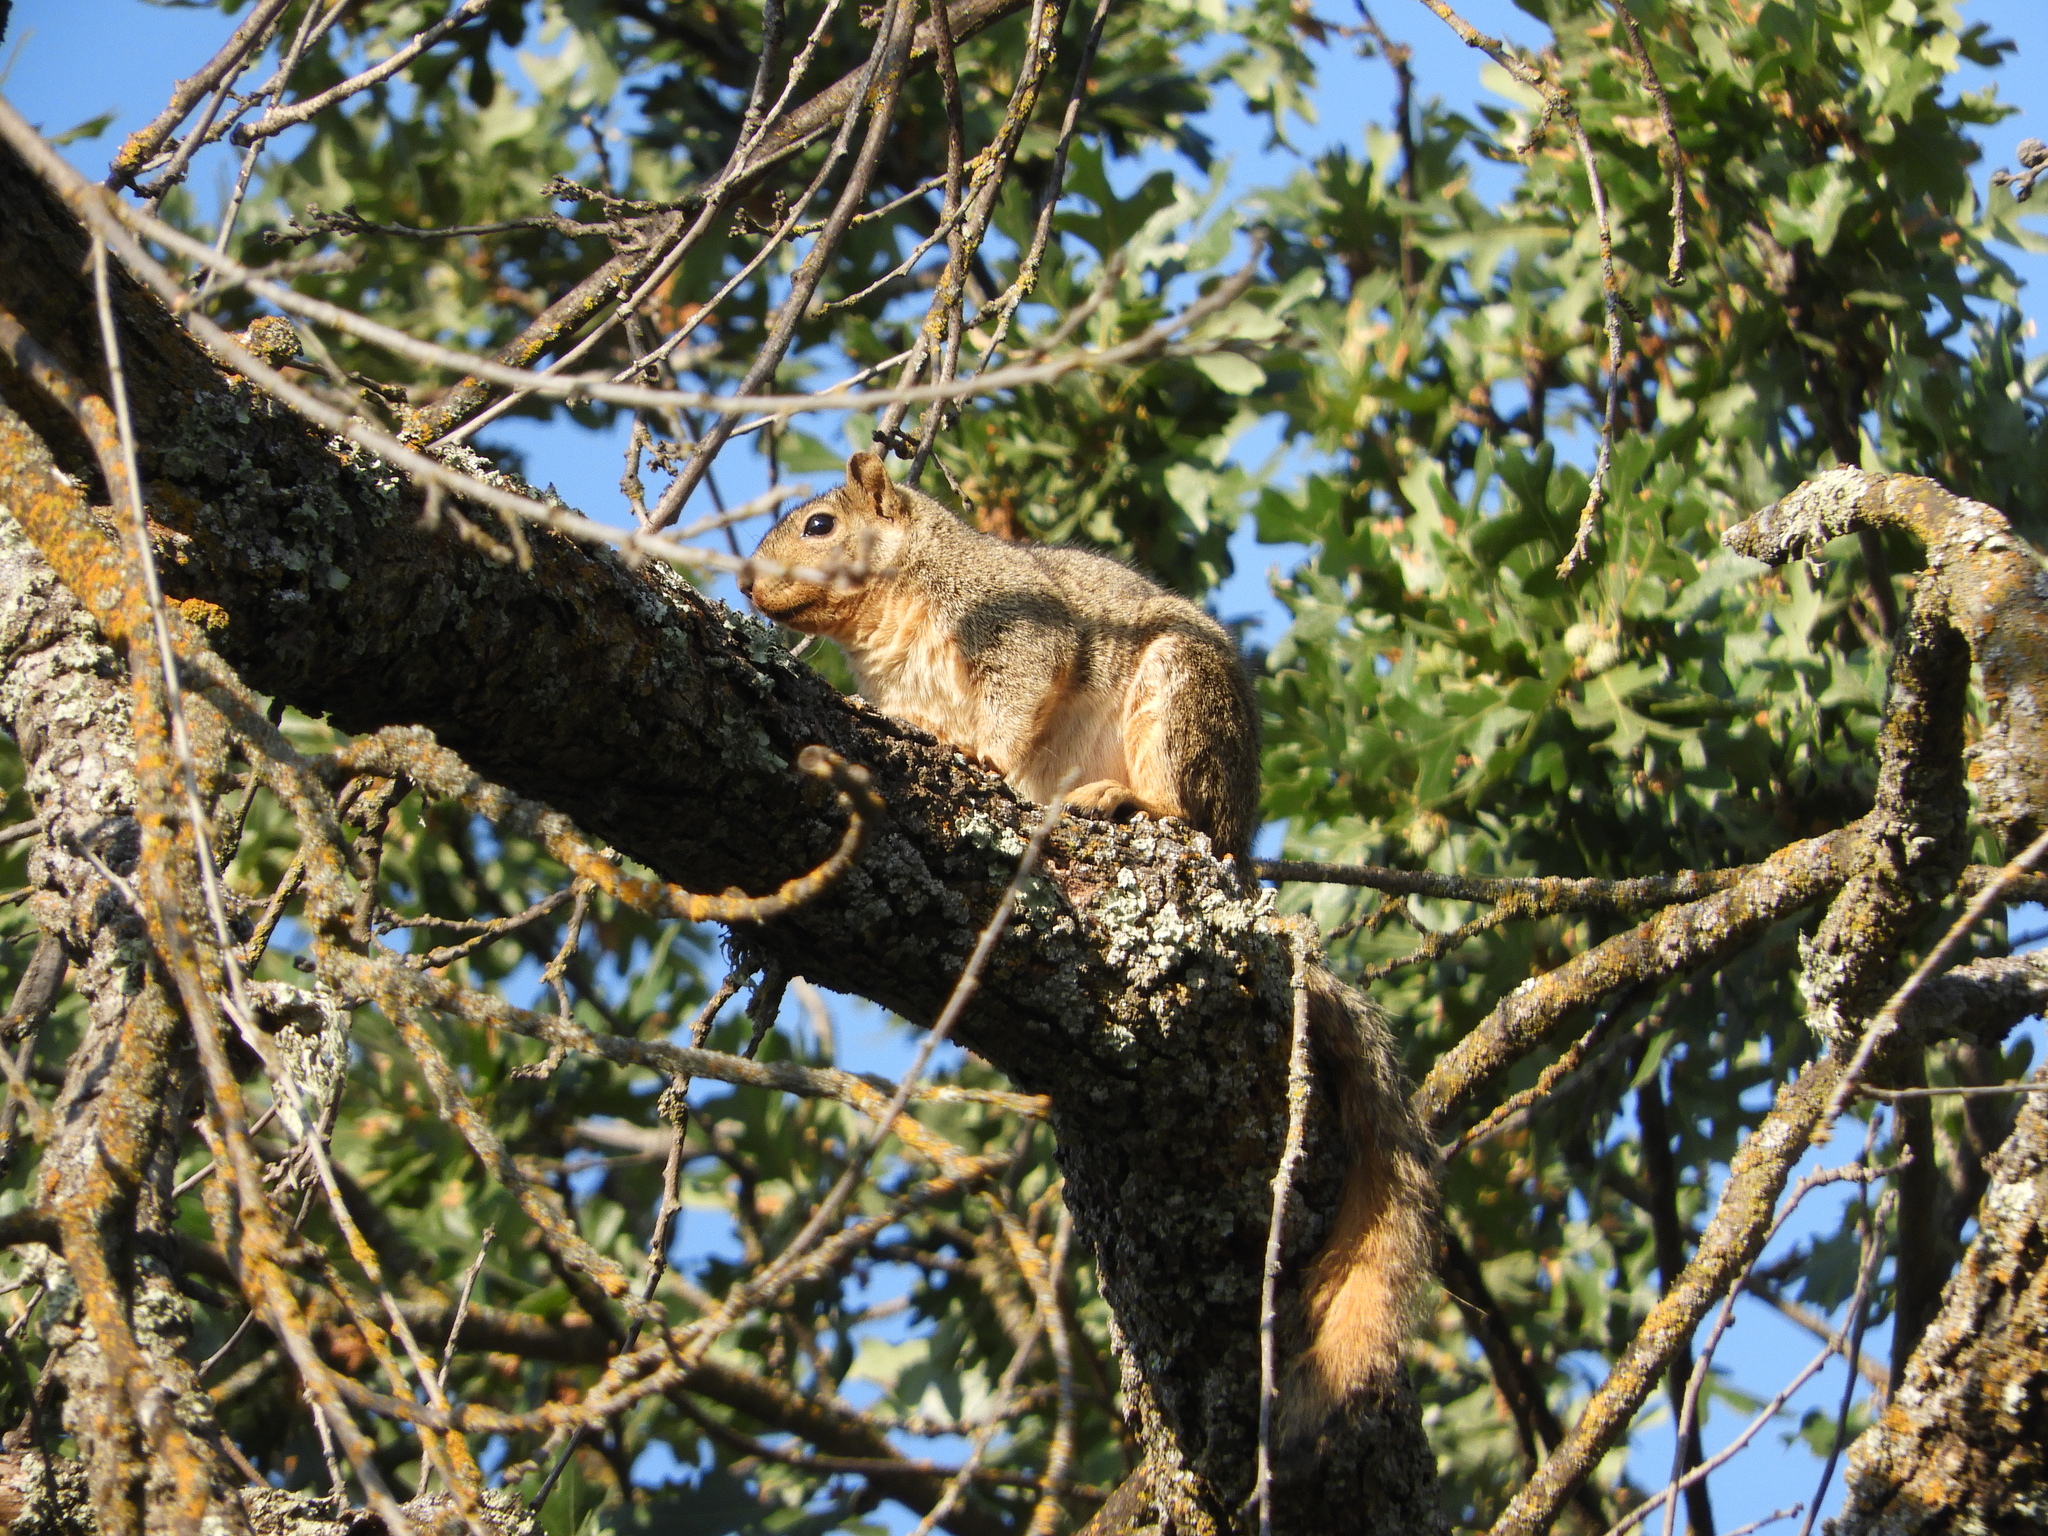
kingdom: Animalia
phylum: Chordata
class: Mammalia
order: Rodentia
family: Sciuridae
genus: Sciurus
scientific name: Sciurus niger
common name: Fox squirrel
